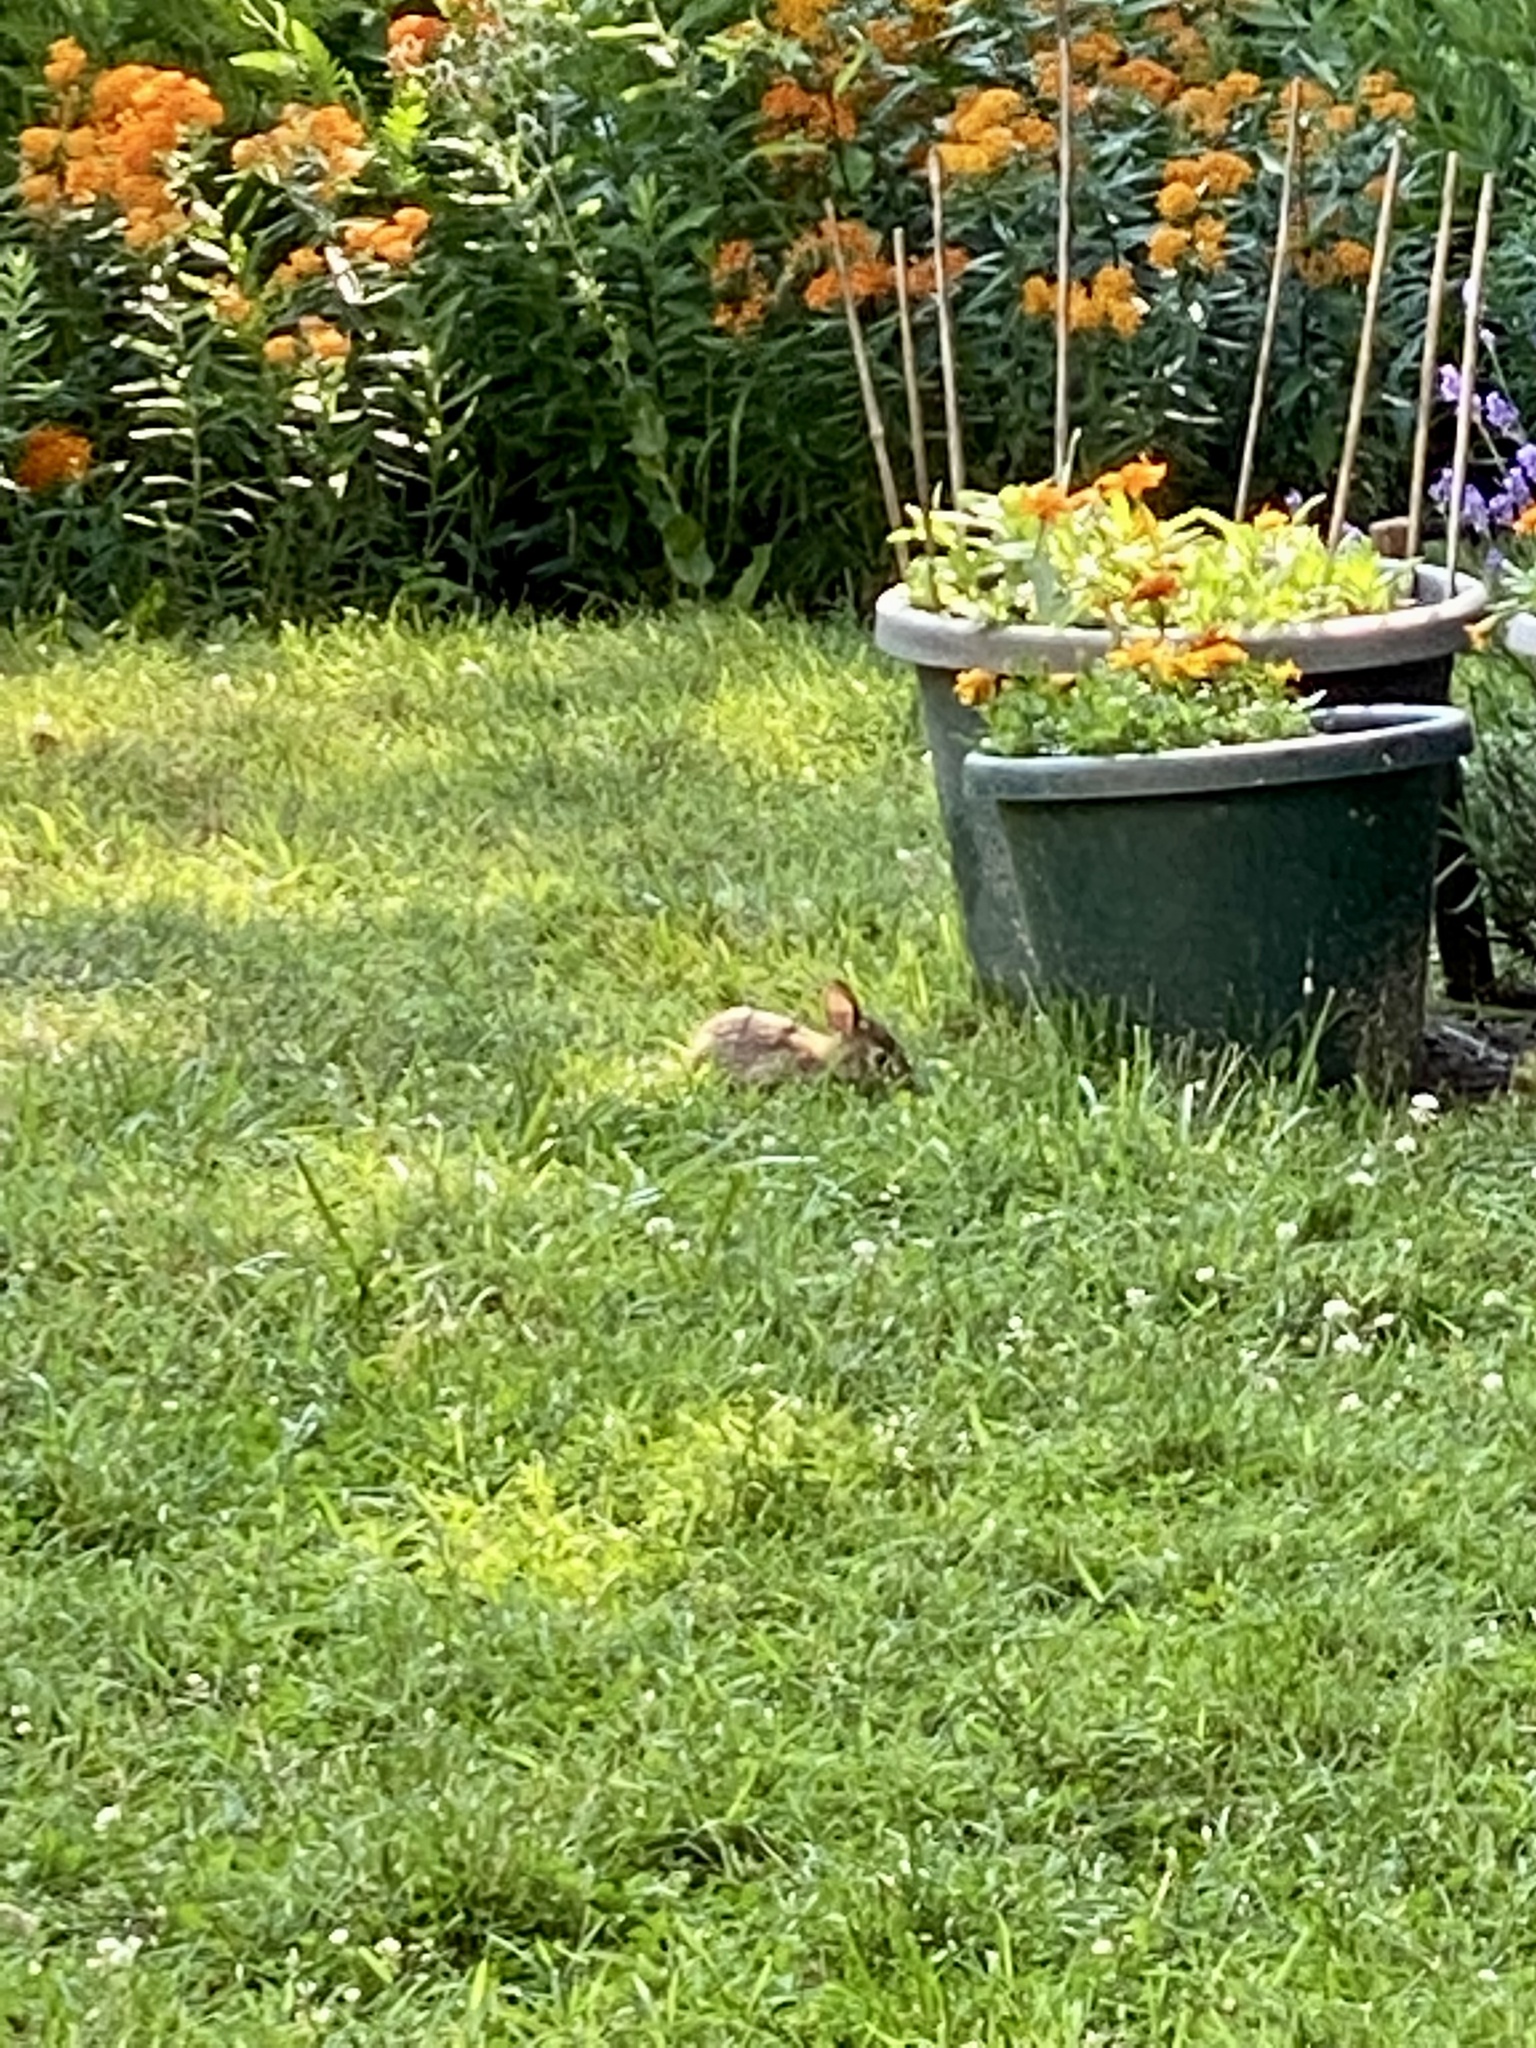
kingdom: Animalia
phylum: Chordata
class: Mammalia
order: Lagomorpha
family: Leporidae
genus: Sylvilagus
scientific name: Sylvilagus floridanus
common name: Eastern cottontail
